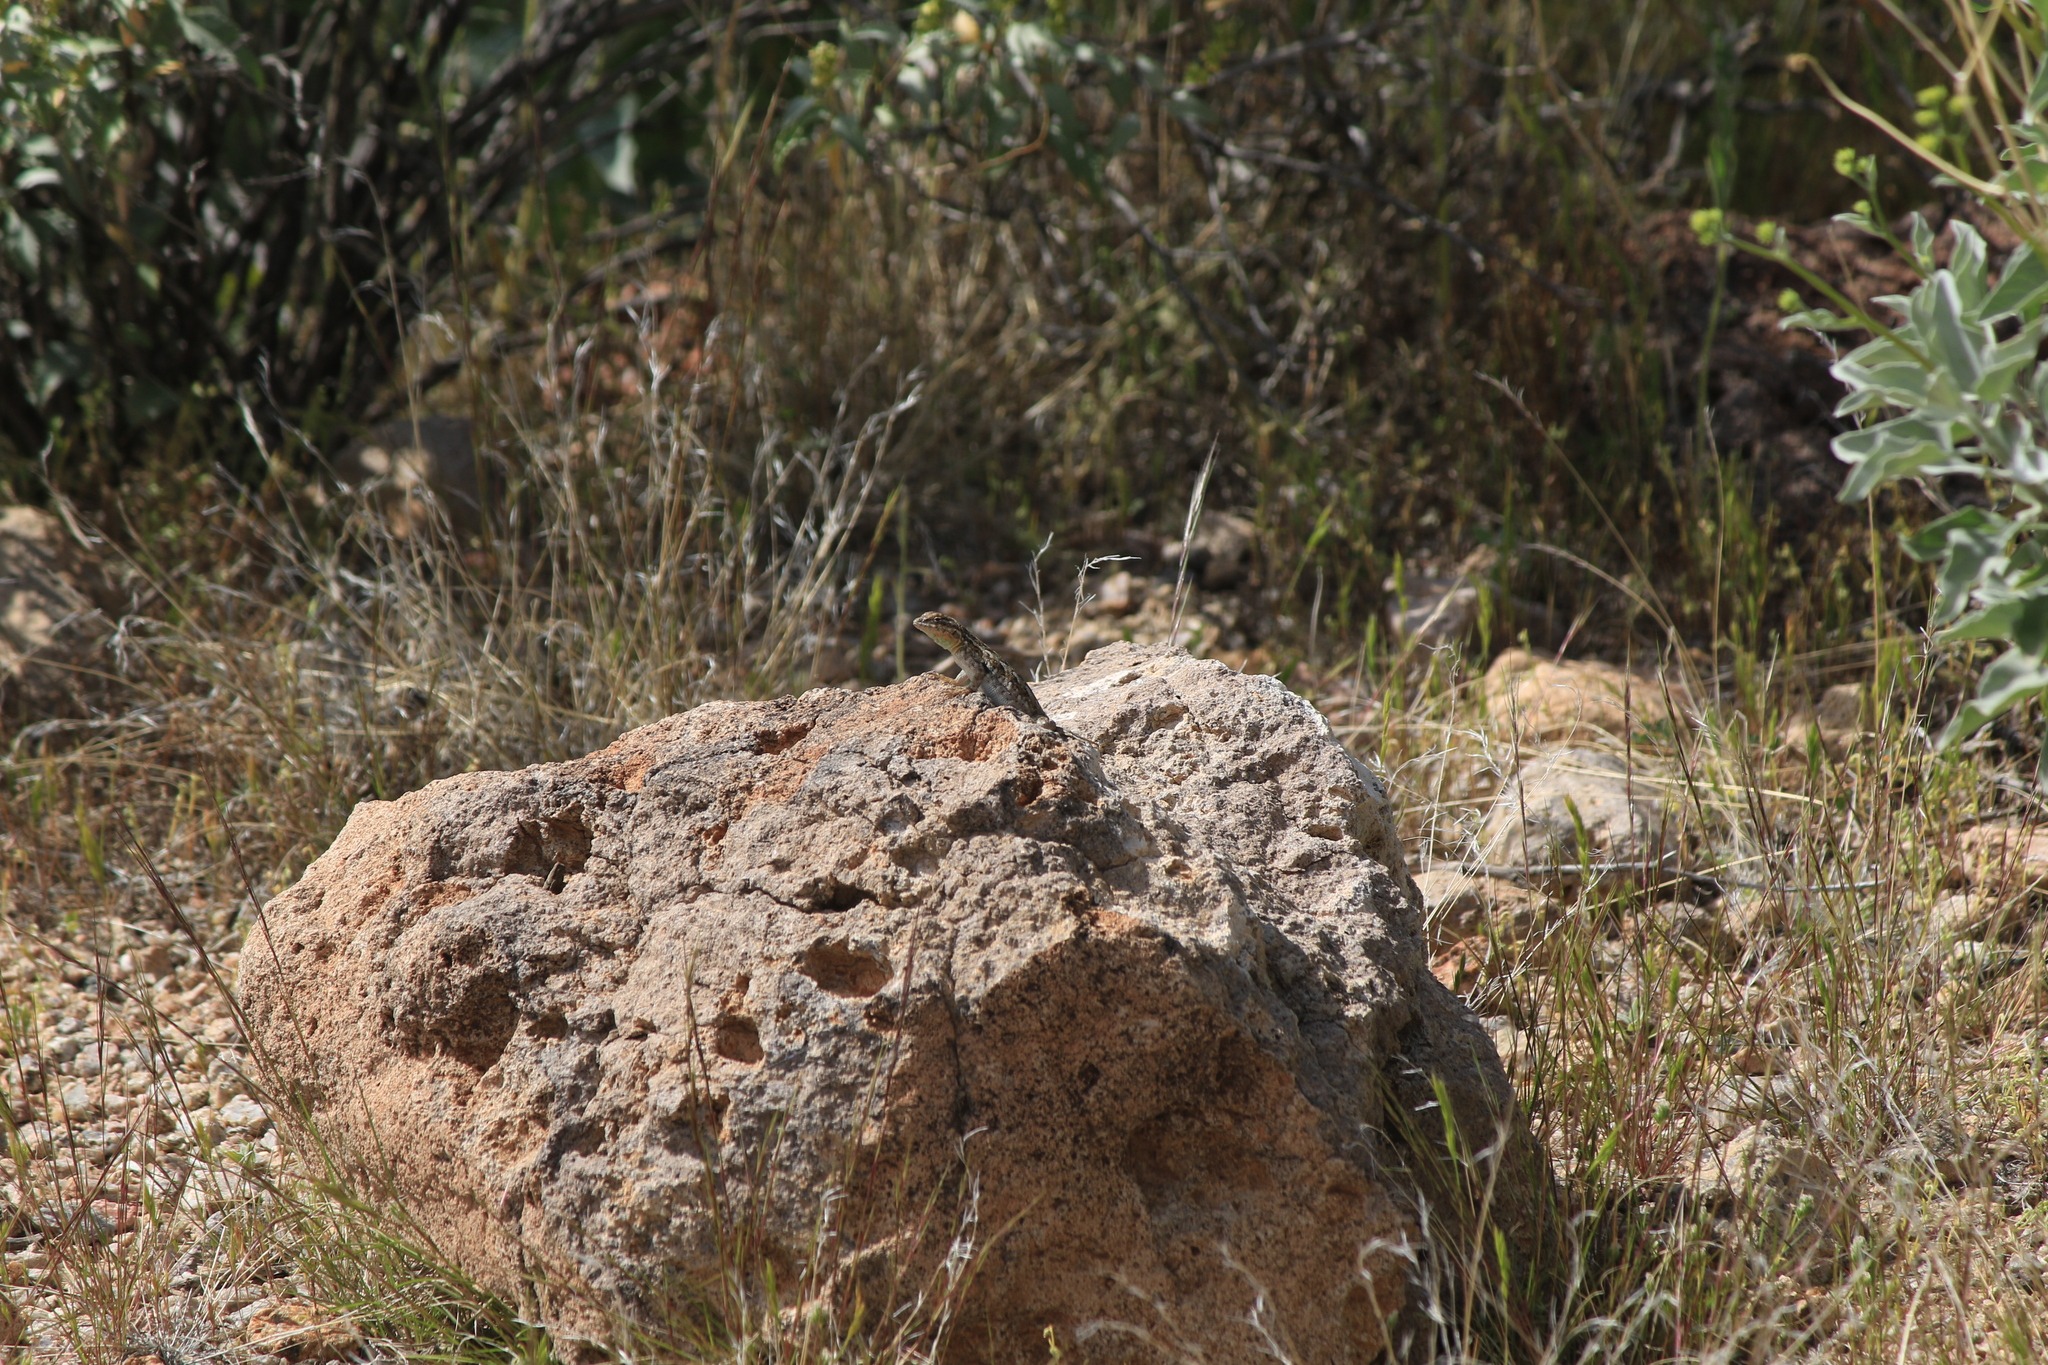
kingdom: Animalia
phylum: Chordata
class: Squamata
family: Phrynosomatidae
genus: Uta
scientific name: Uta stansburiana
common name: Side-blotched lizard
